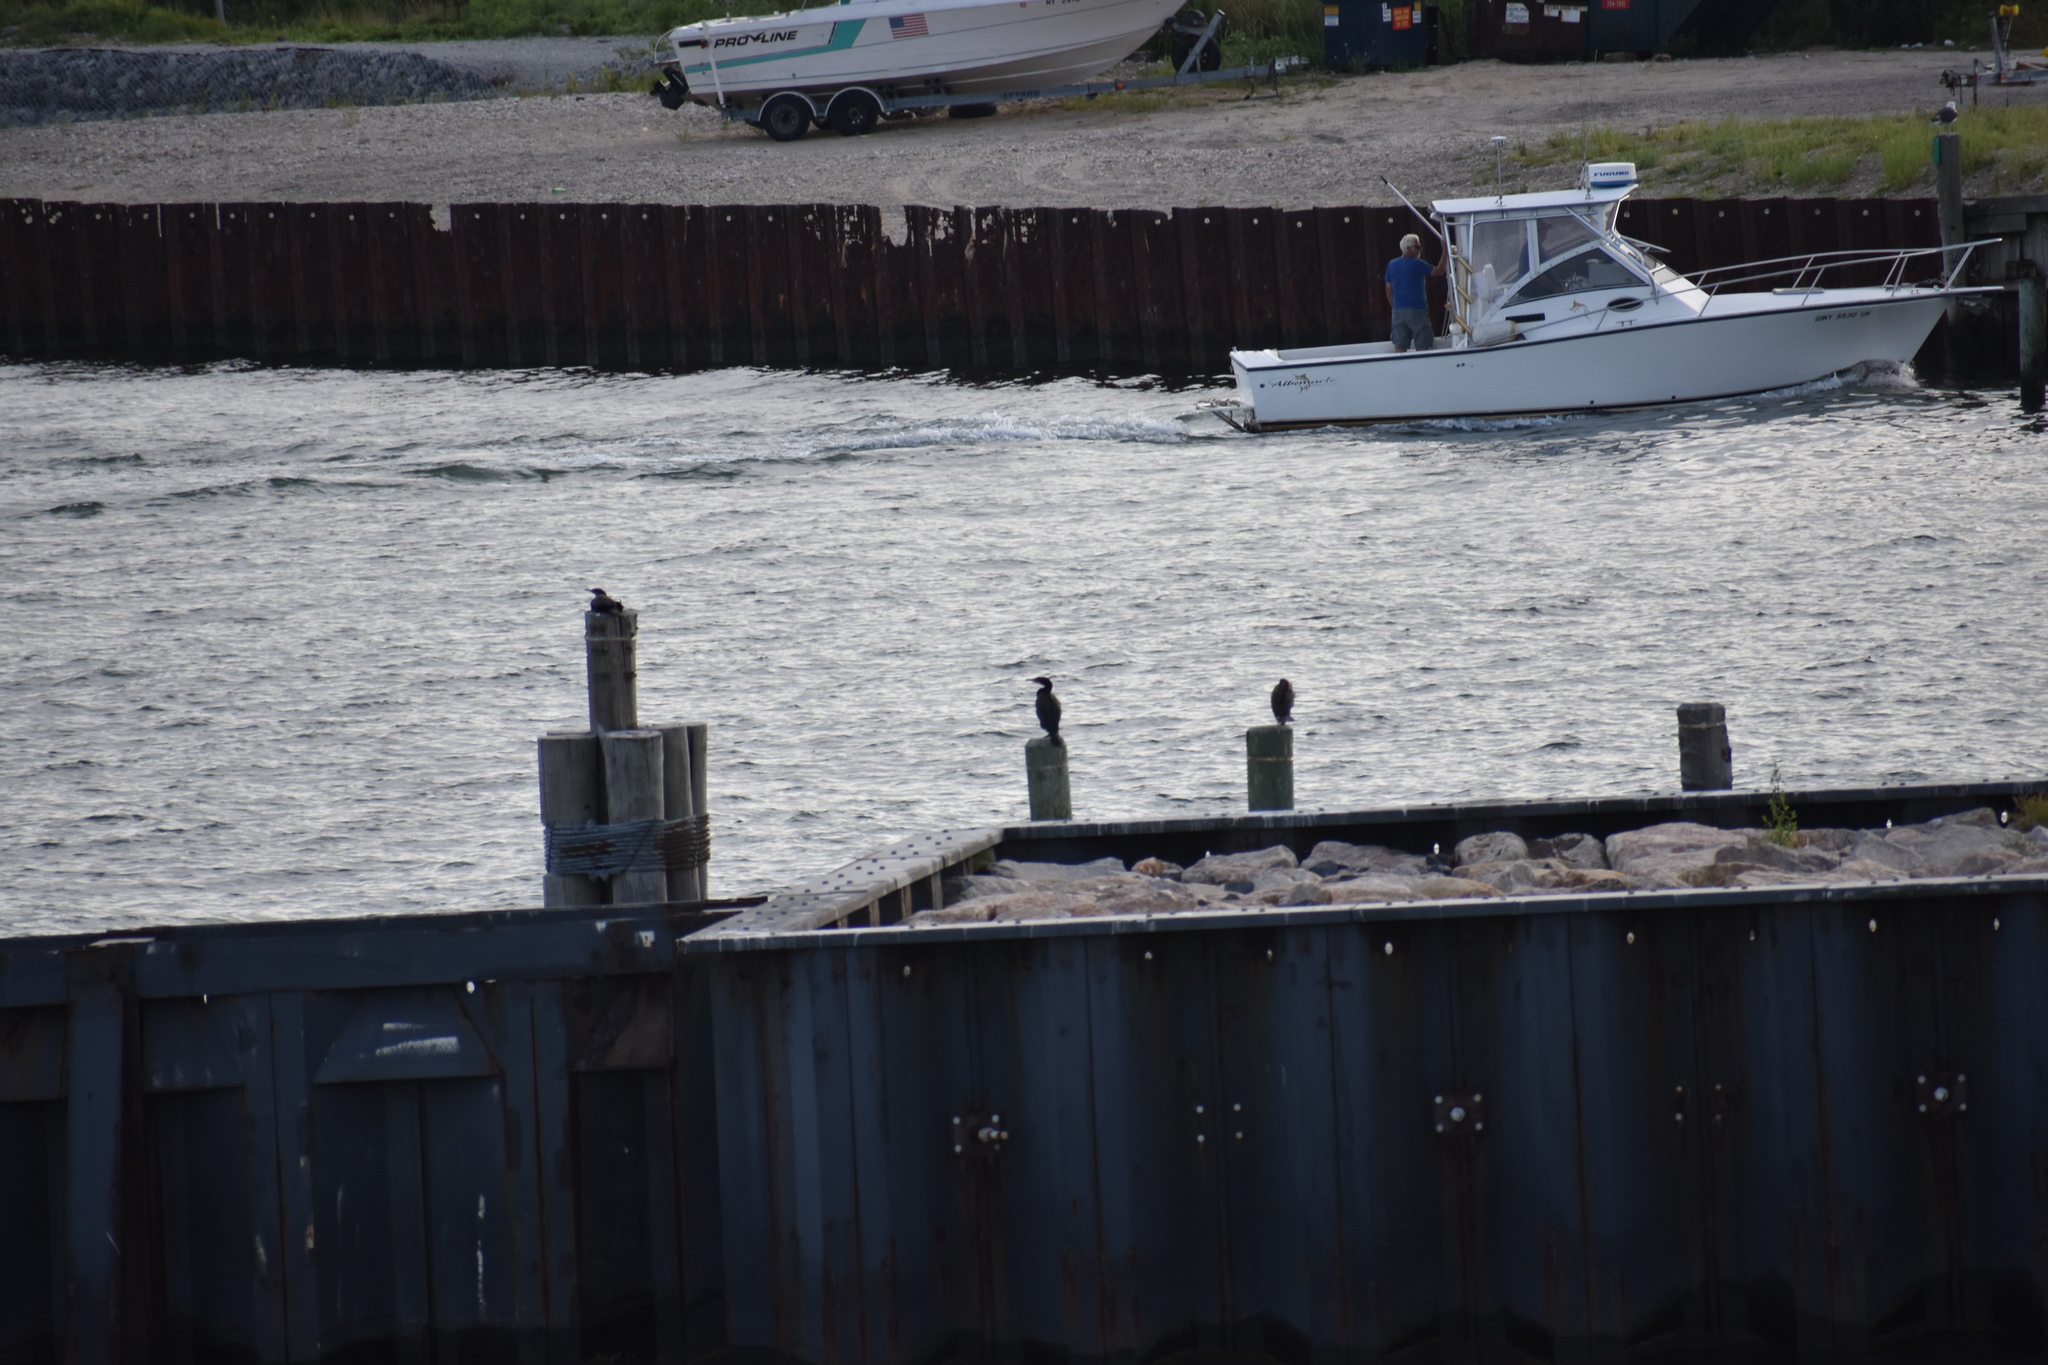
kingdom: Animalia
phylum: Chordata
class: Aves
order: Suliformes
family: Phalacrocoracidae
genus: Phalacrocorax
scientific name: Phalacrocorax auritus
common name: Double-crested cormorant
